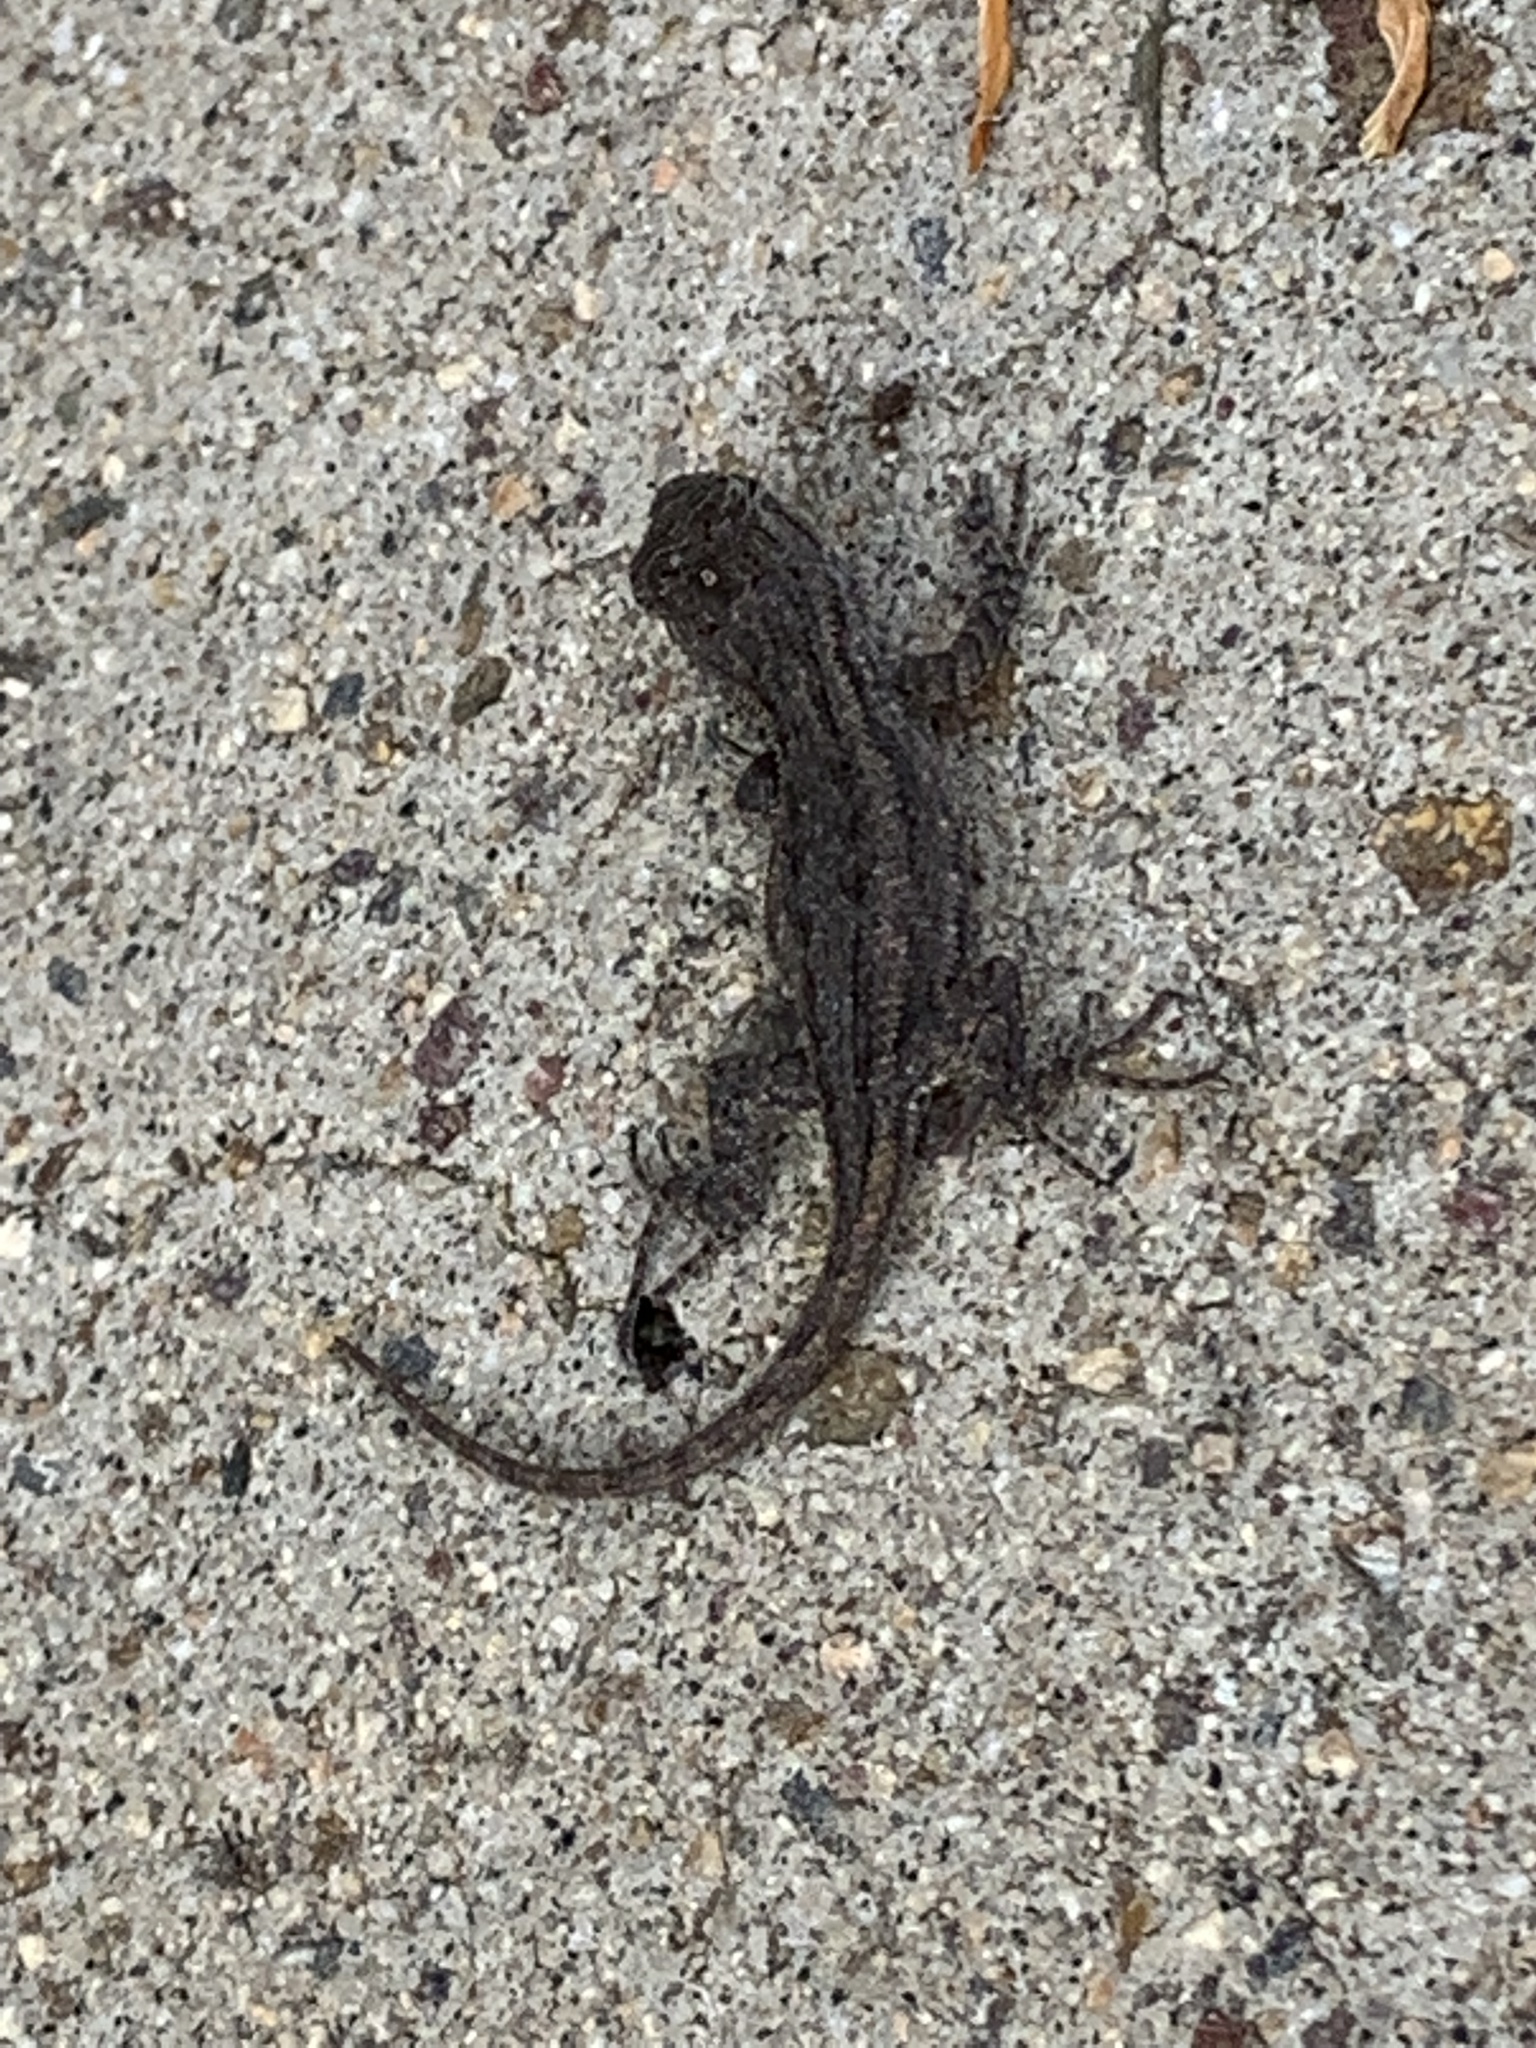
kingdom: Animalia
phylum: Chordata
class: Squamata
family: Phrynosomatidae
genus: Sceloporus
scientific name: Sceloporus occidentalis
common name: Western fence lizard
